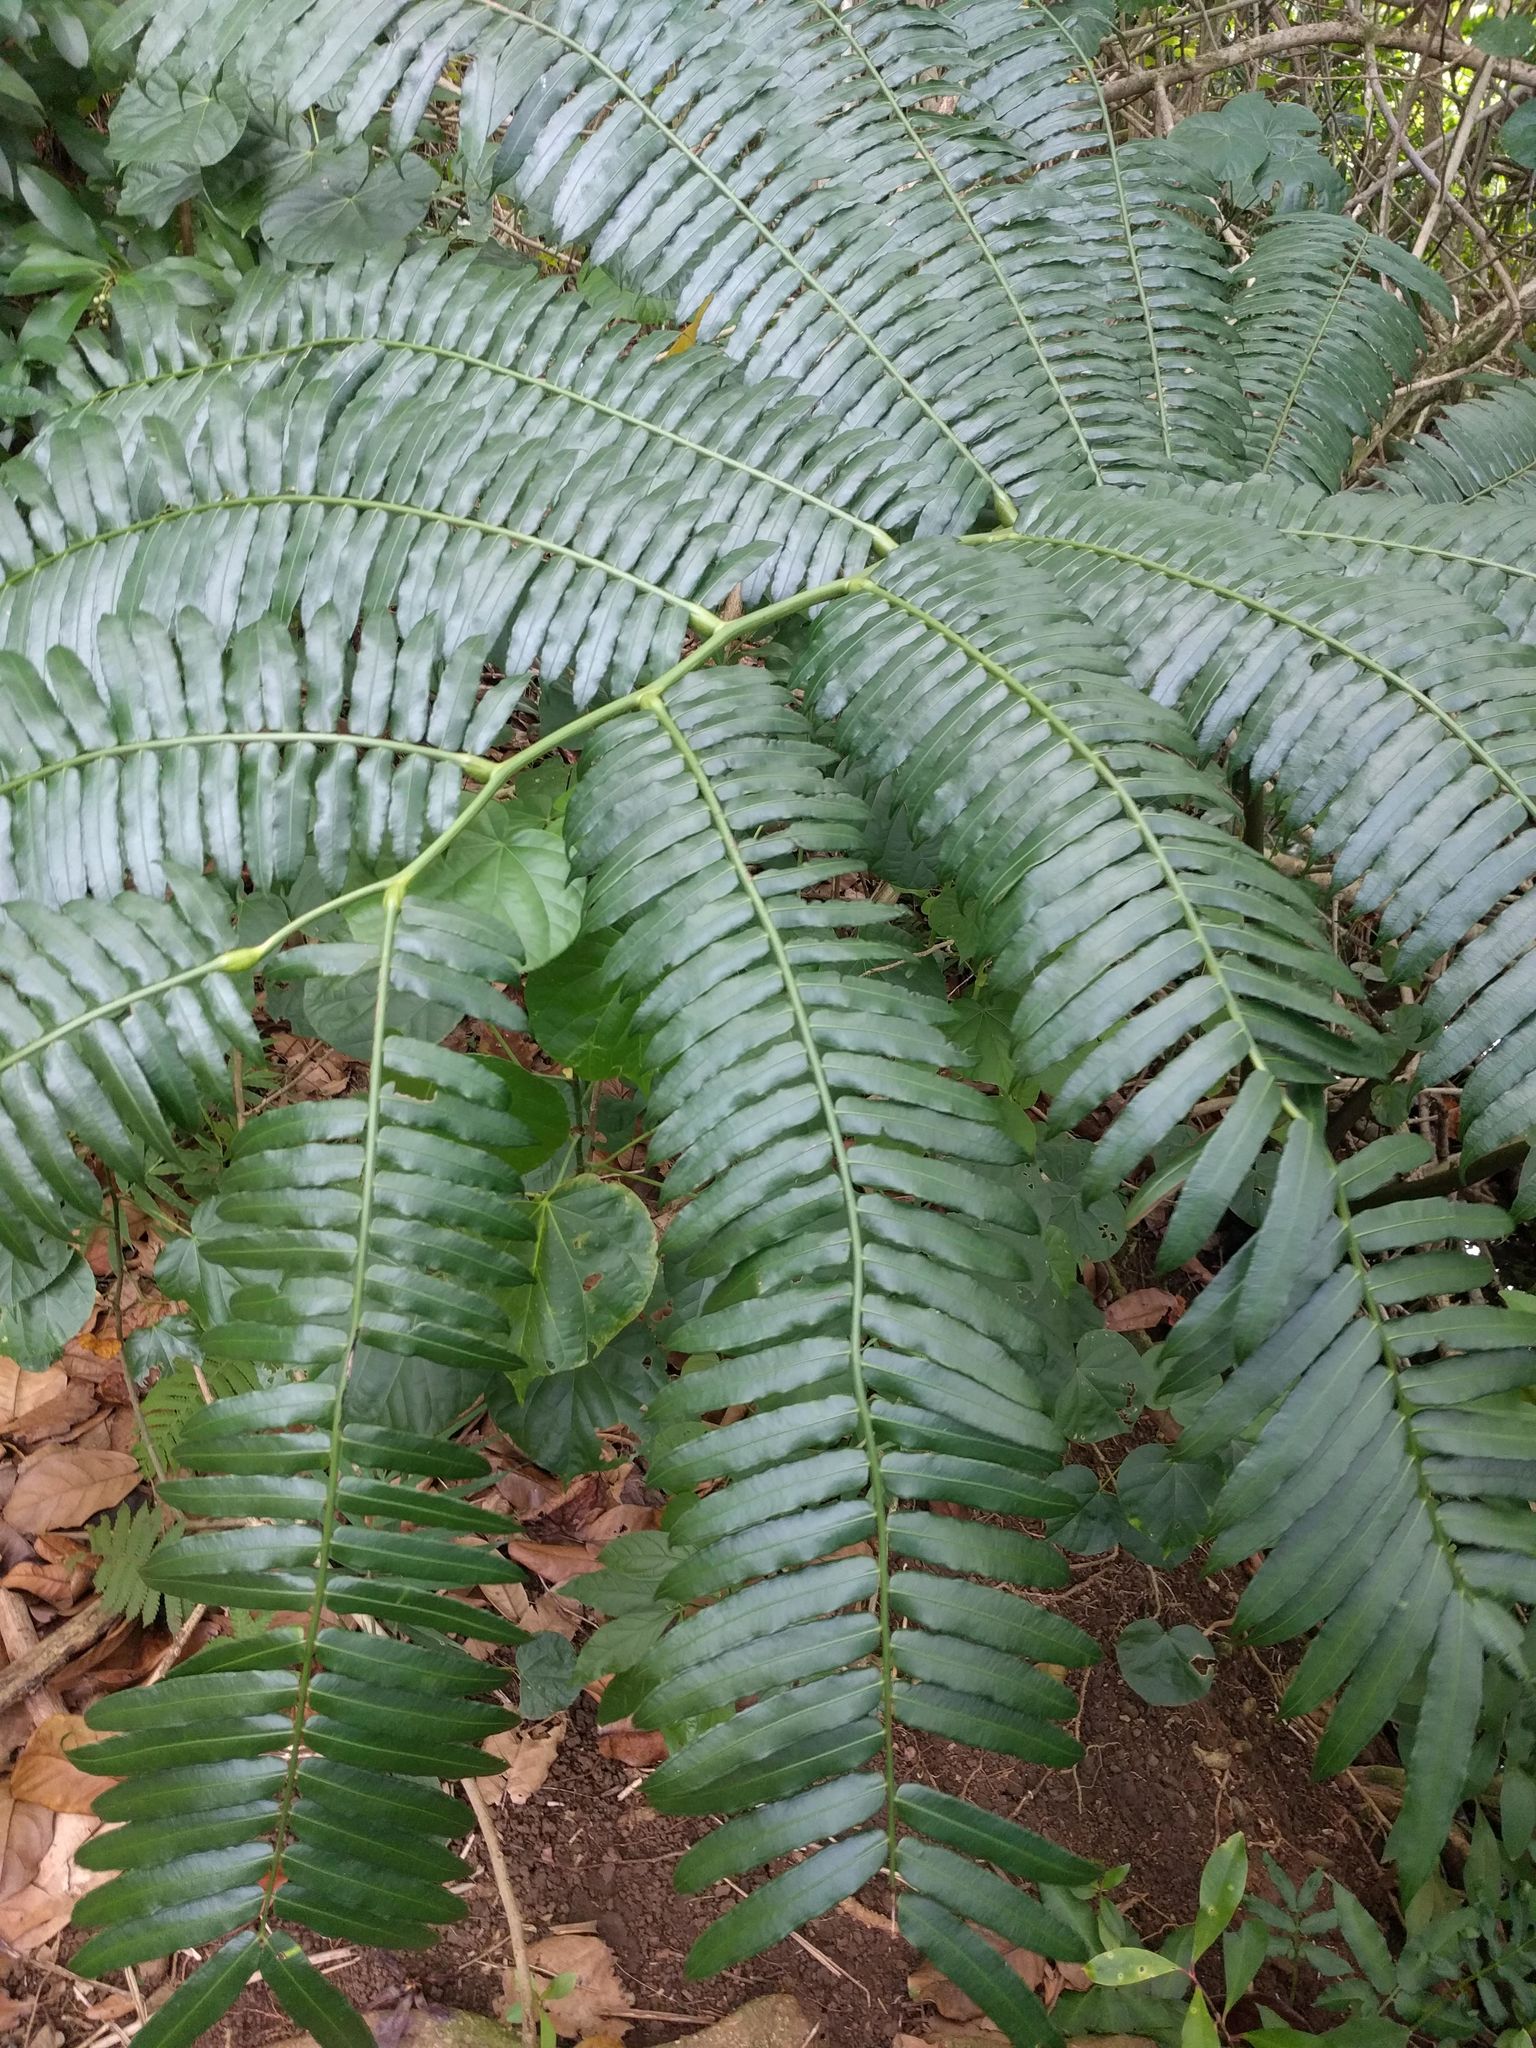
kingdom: Plantae
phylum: Tracheophyta
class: Polypodiopsida
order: Marattiales
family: Marattiaceae
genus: Angiopteris
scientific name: Angiopteris evecta
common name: Mule's-foot fern
